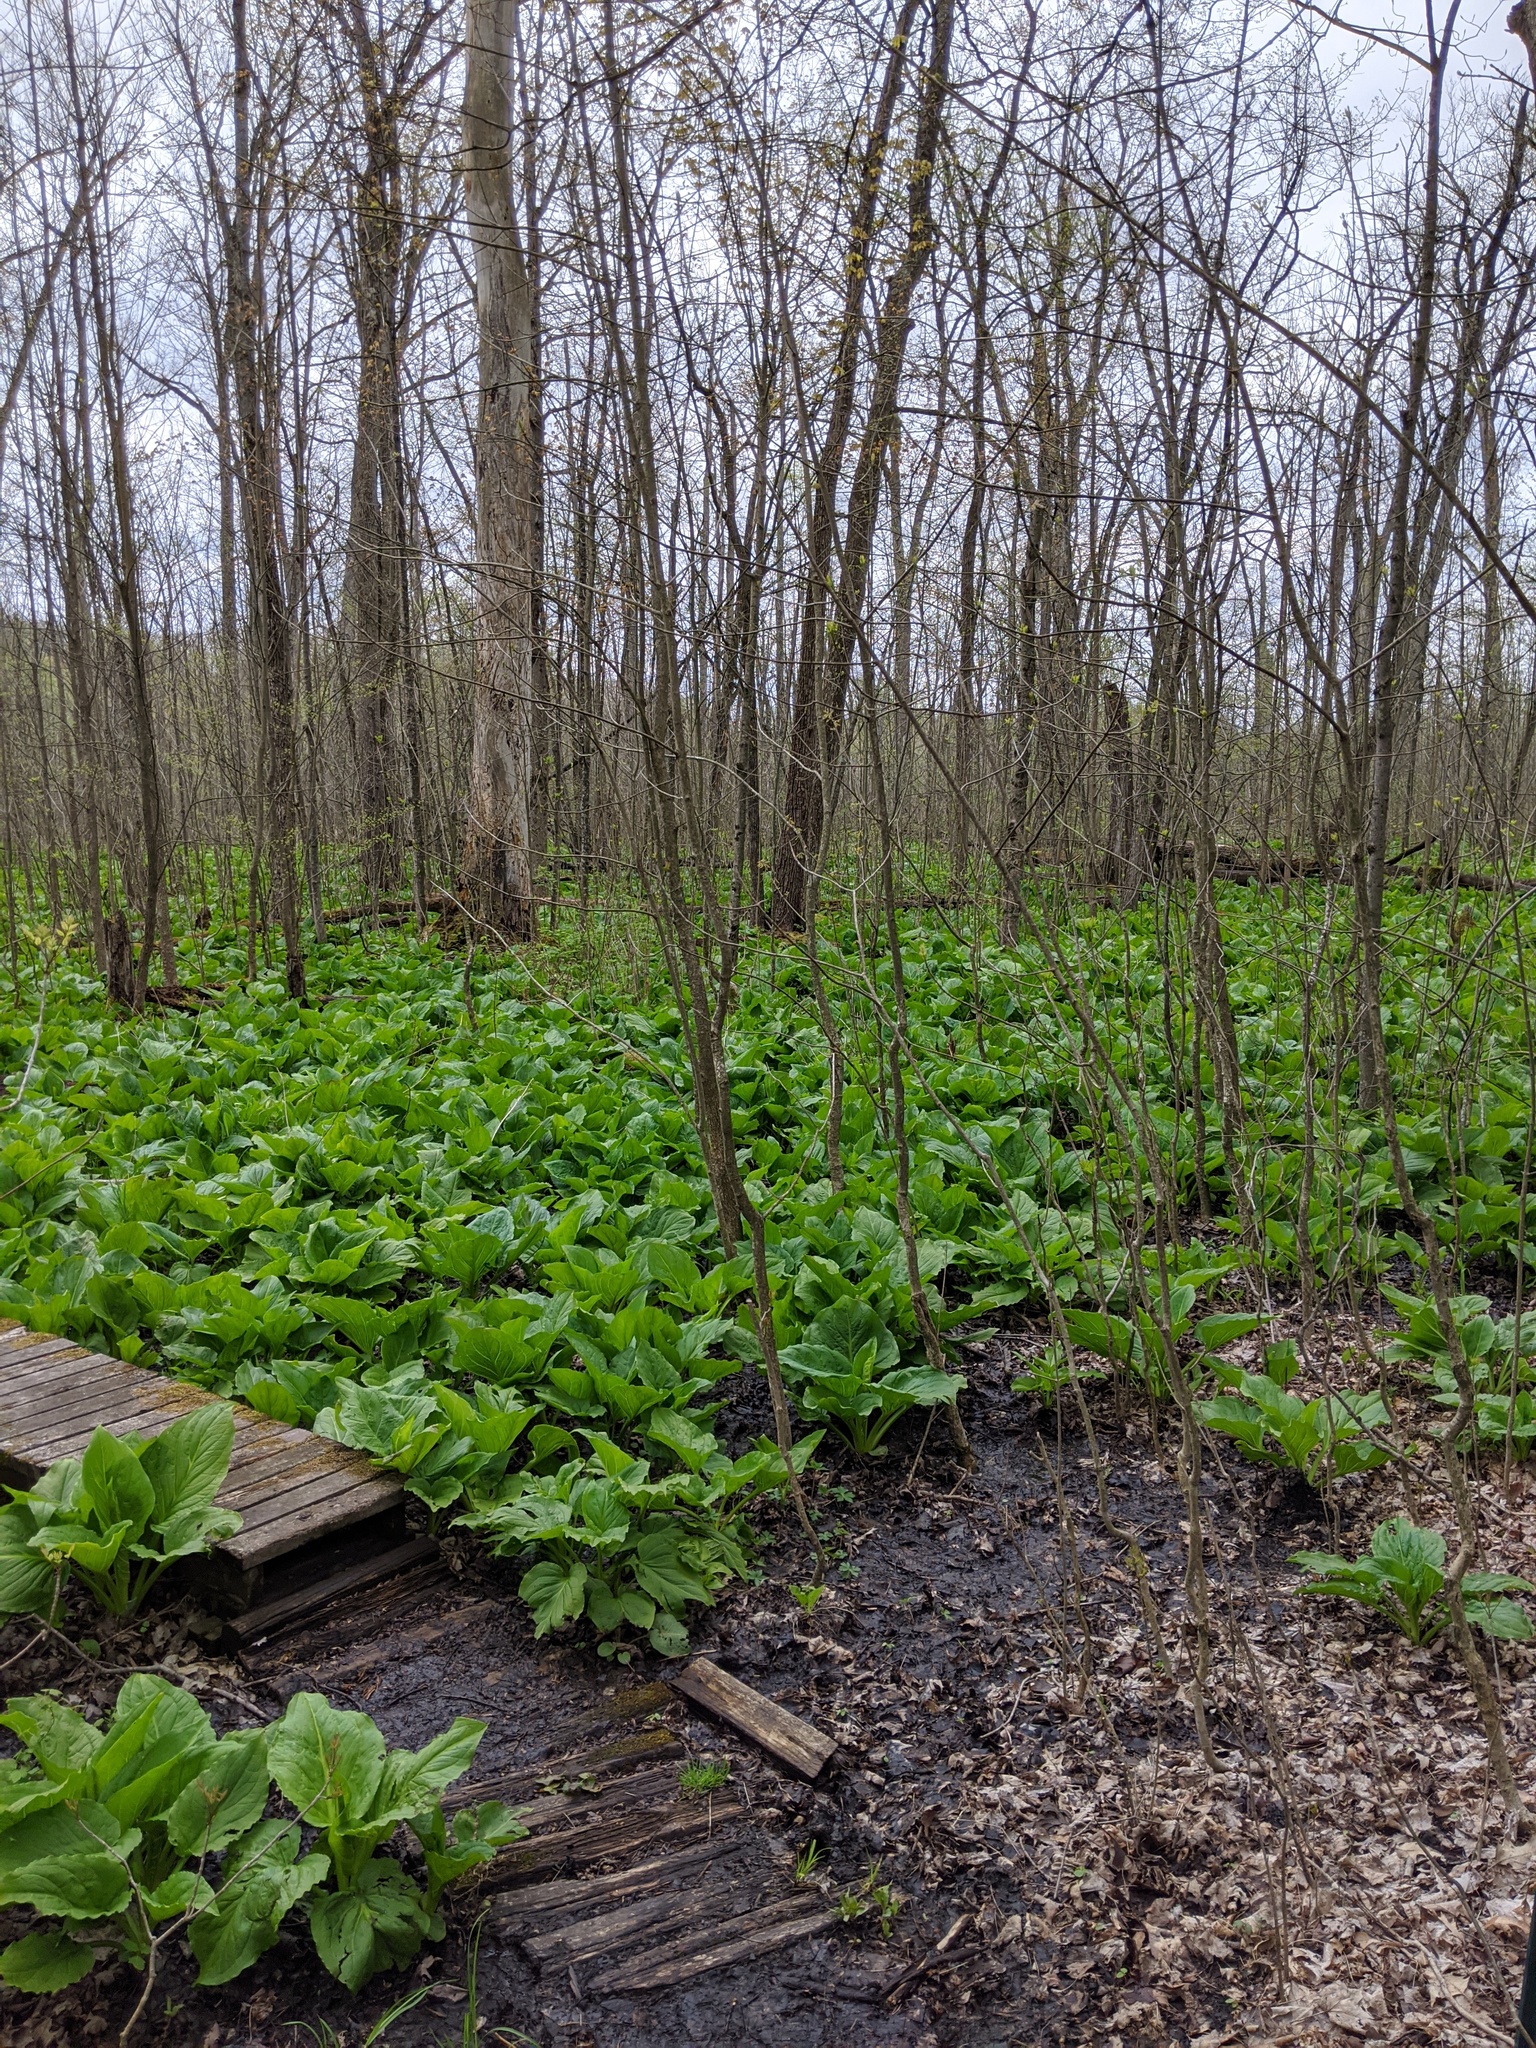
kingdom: Plantae
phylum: Tracheophyta
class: Liliopsida
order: Alismatales
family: Araceae
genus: Symplocarpus
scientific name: Symplocarpus foetidus
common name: Eastern skunk cabbage
